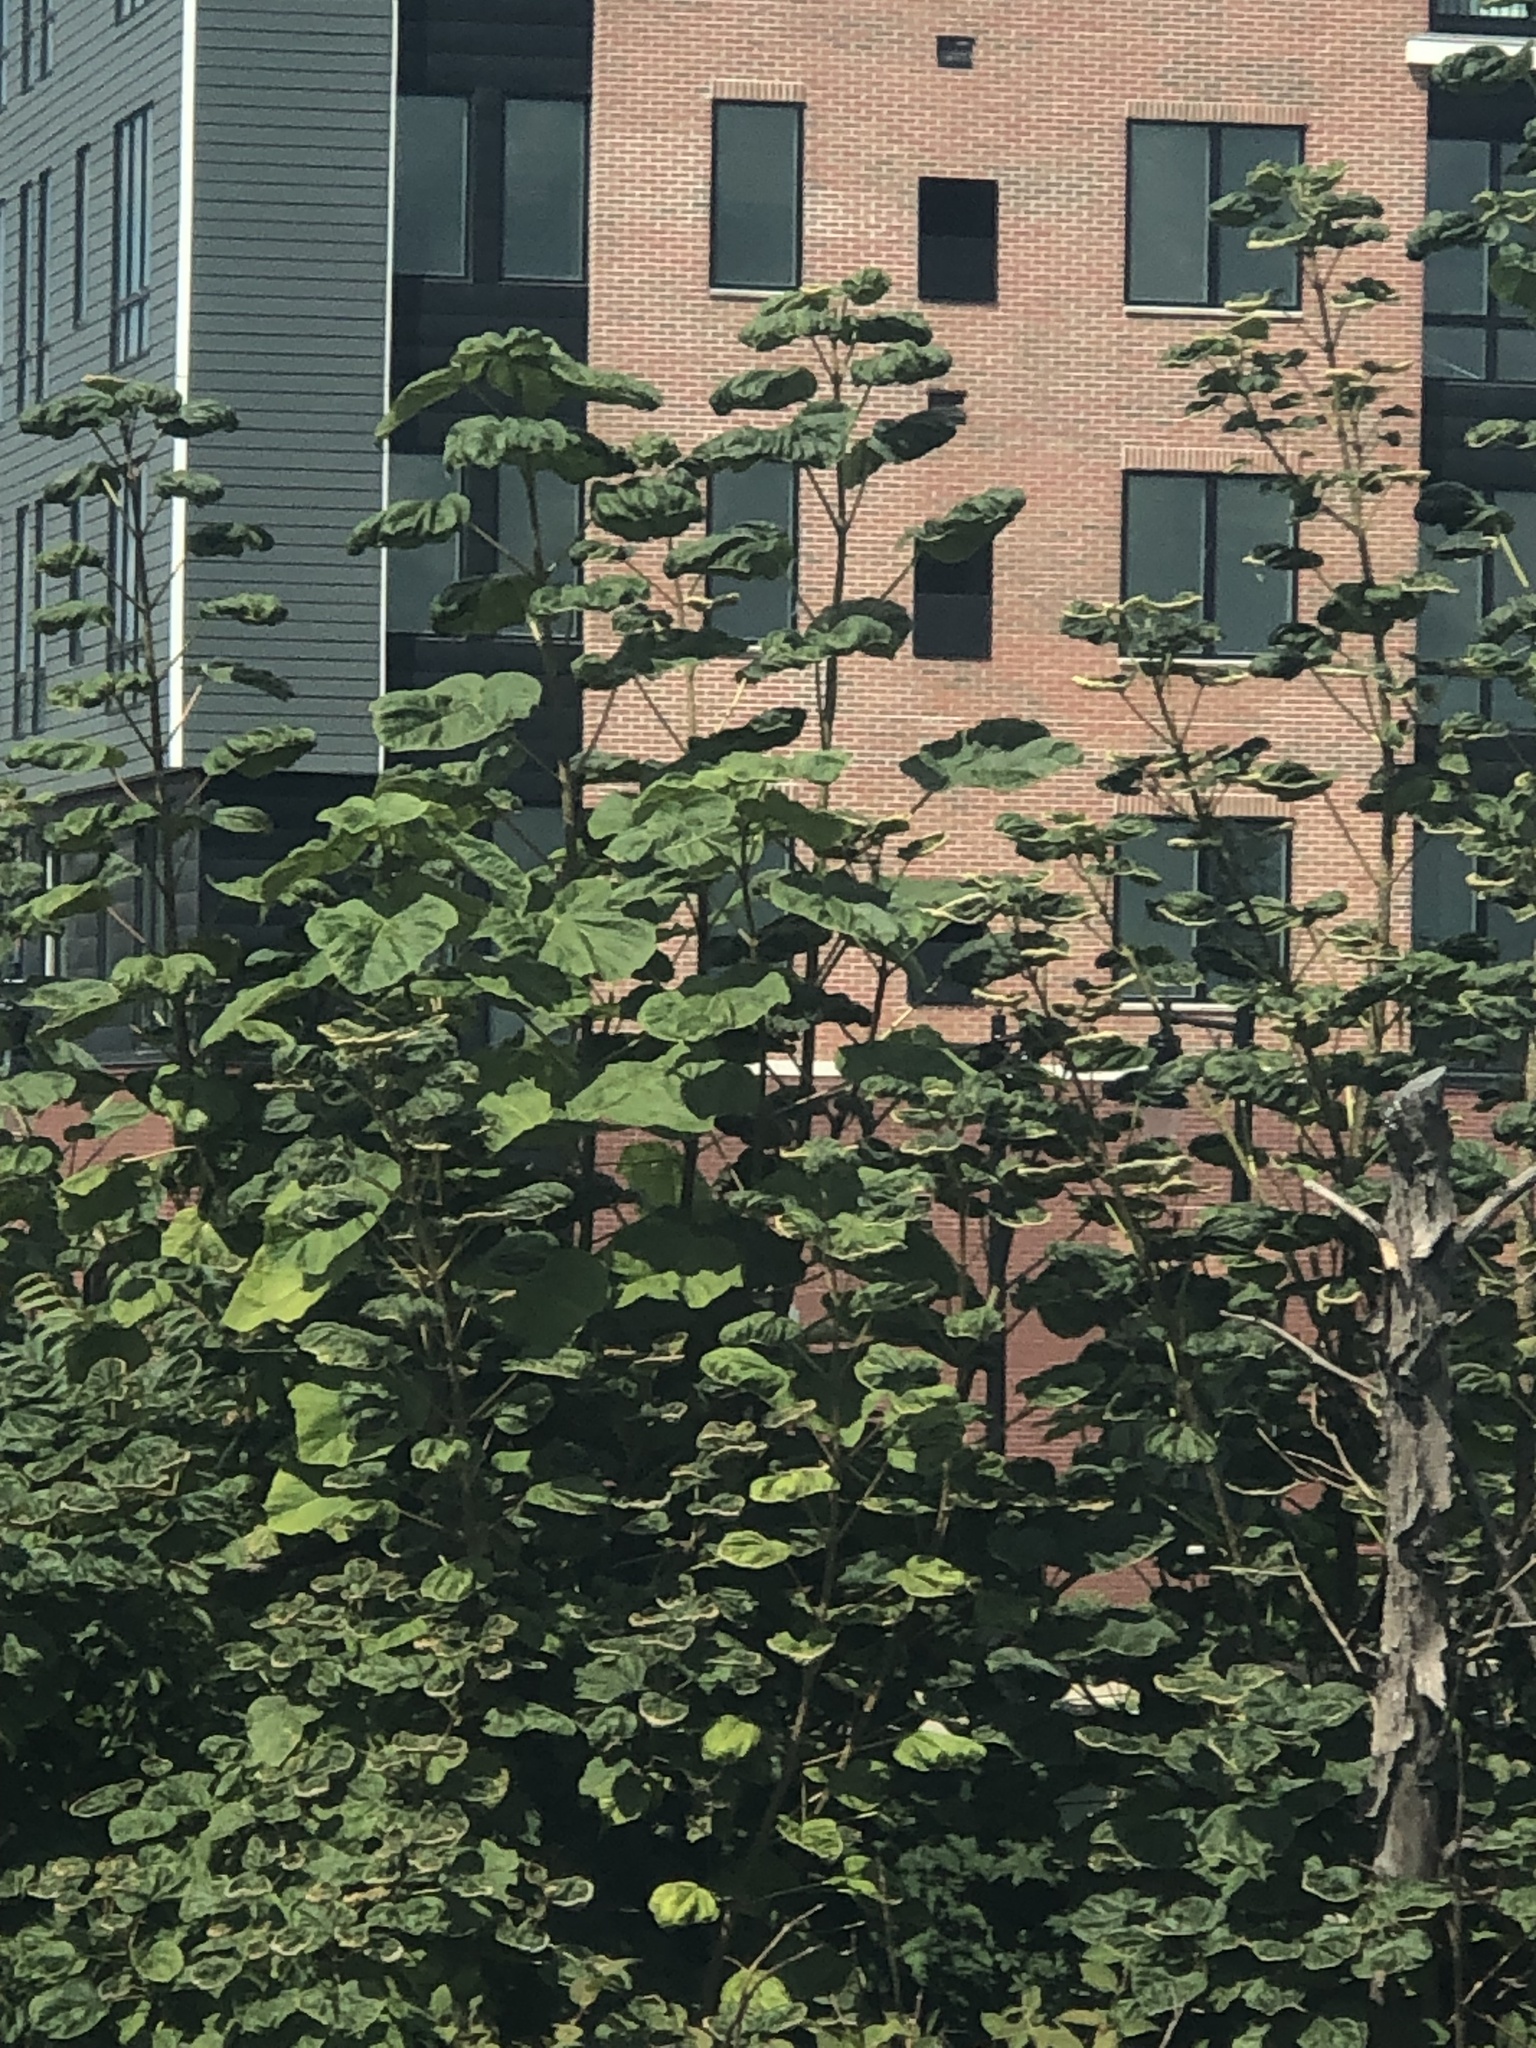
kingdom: Plantae
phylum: Tracheophyta
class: Magnoliopsida
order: Lamiales
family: Paulowniaceae
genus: Paulownia
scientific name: Paulownia tomentosa
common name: Foxglove-tree
